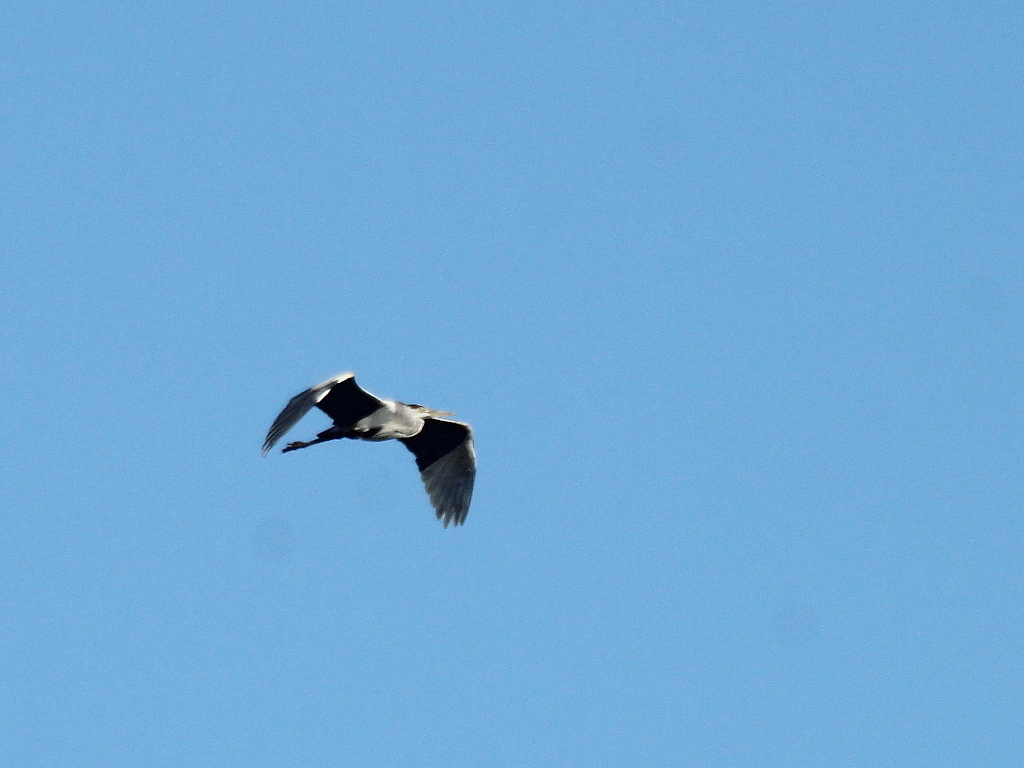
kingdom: Animalia
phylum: Chordata
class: Aves
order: Pelecaniformes
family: Ardeidae
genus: Ardea
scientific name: Ardea cinerea
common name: Grey heron
